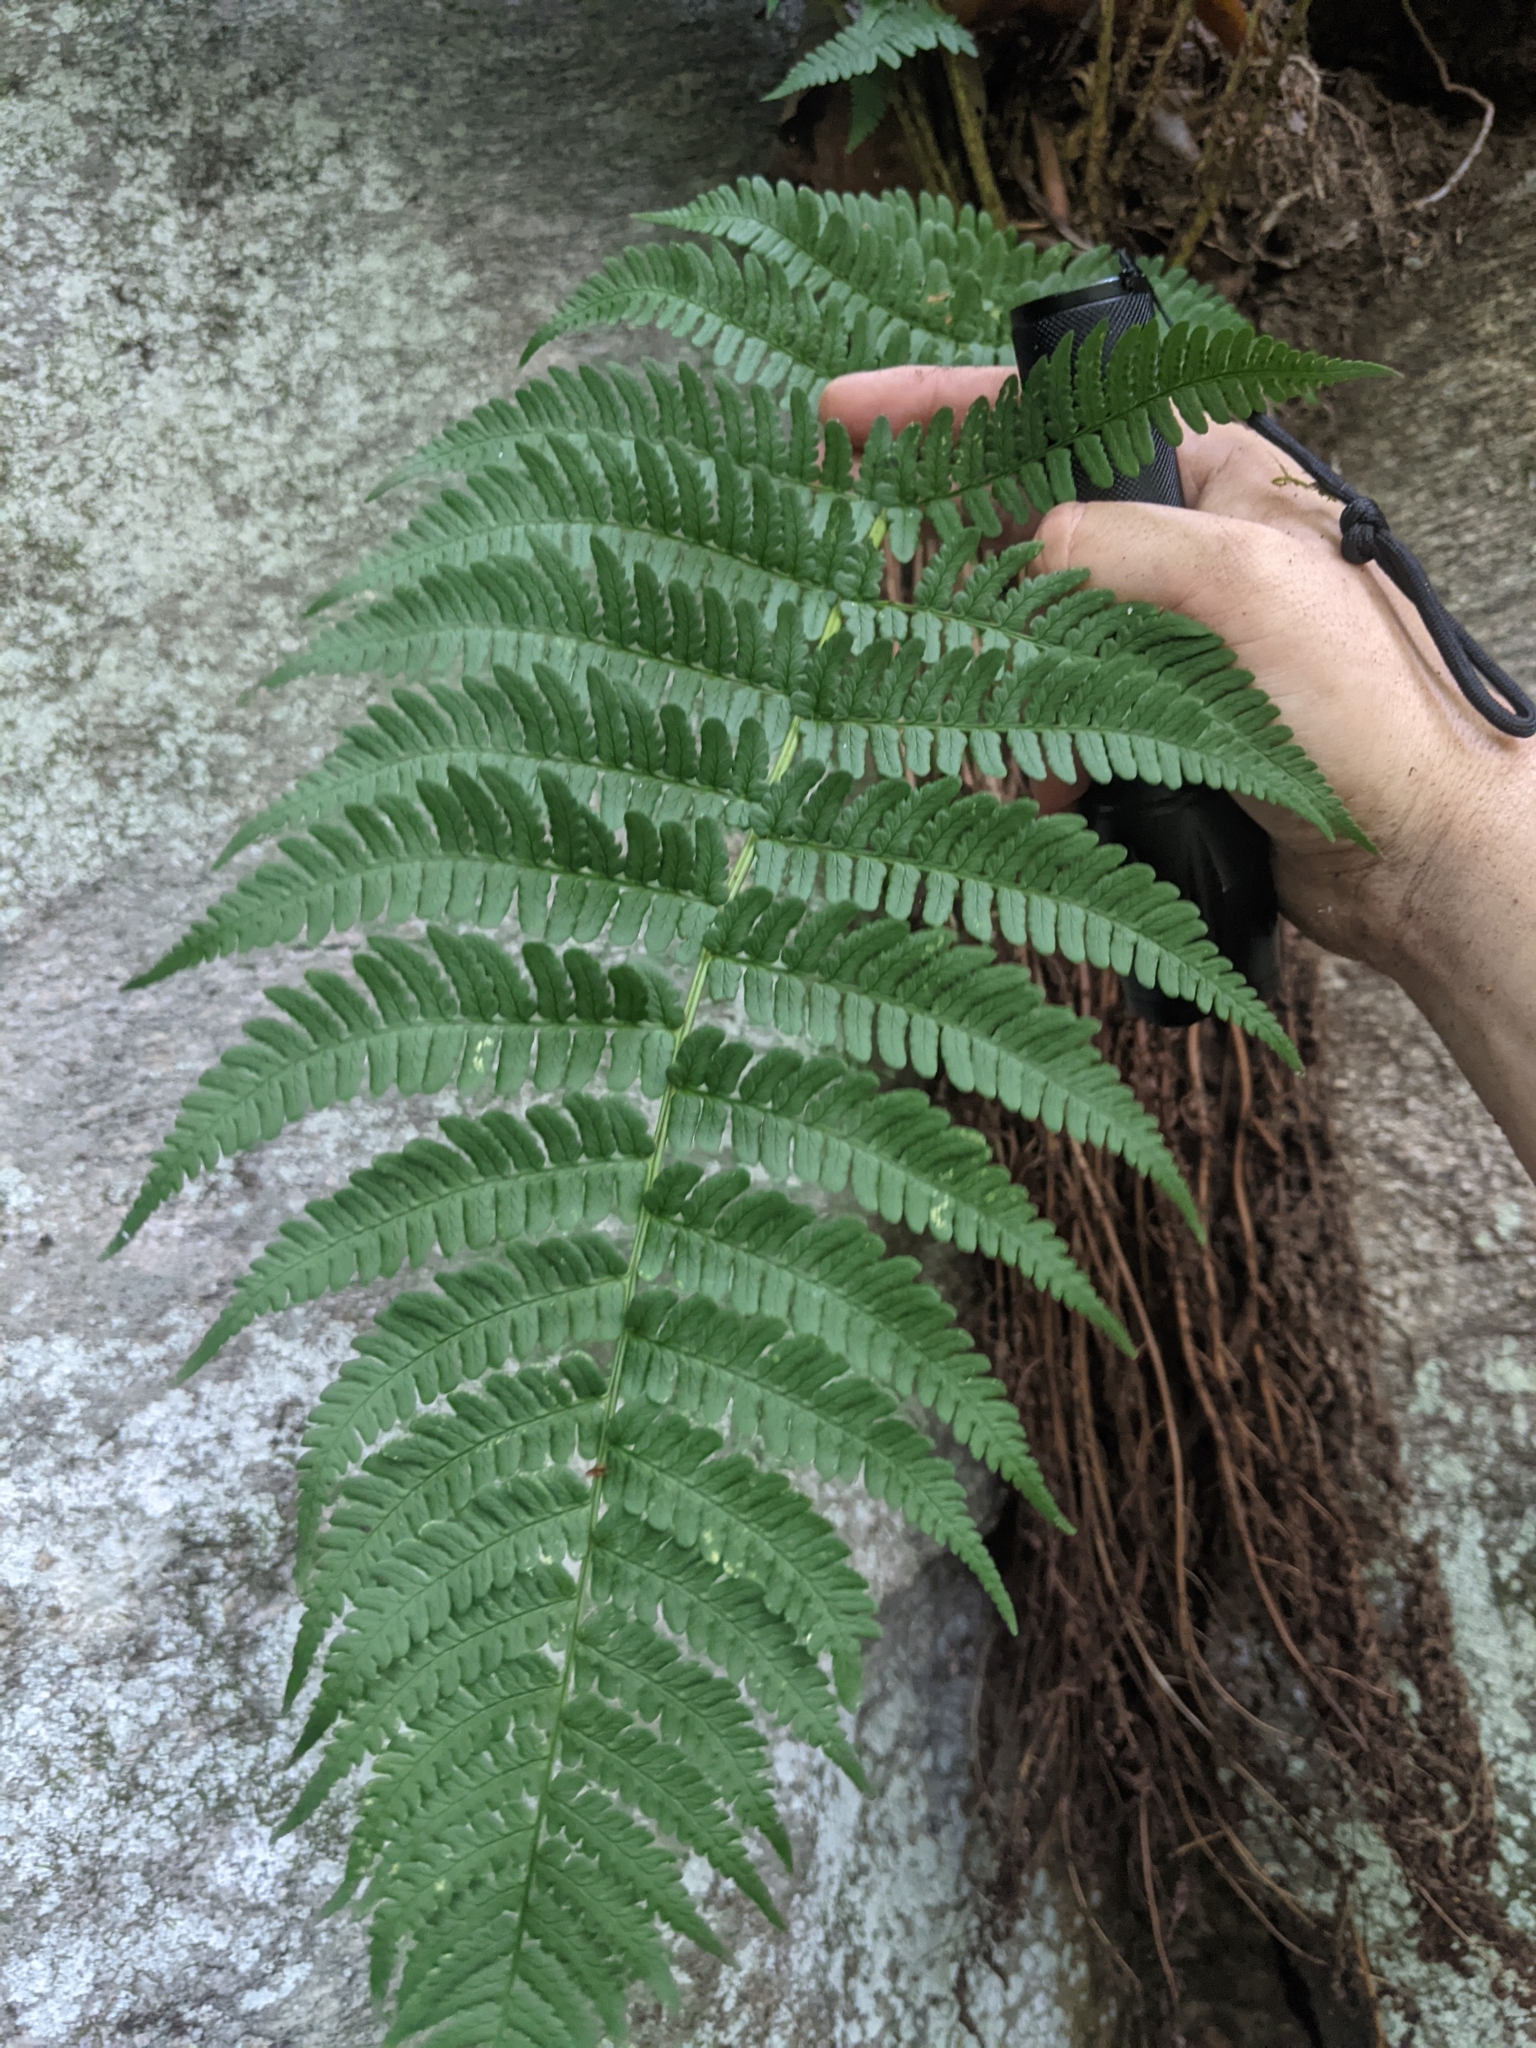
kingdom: Plantae
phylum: Tracheophyta
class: Polypodiopsida
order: Polypodiales
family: Dryopteridaceae
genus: Dryopteris
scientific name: Dryopteris marginalis
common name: Marginal wood fern
